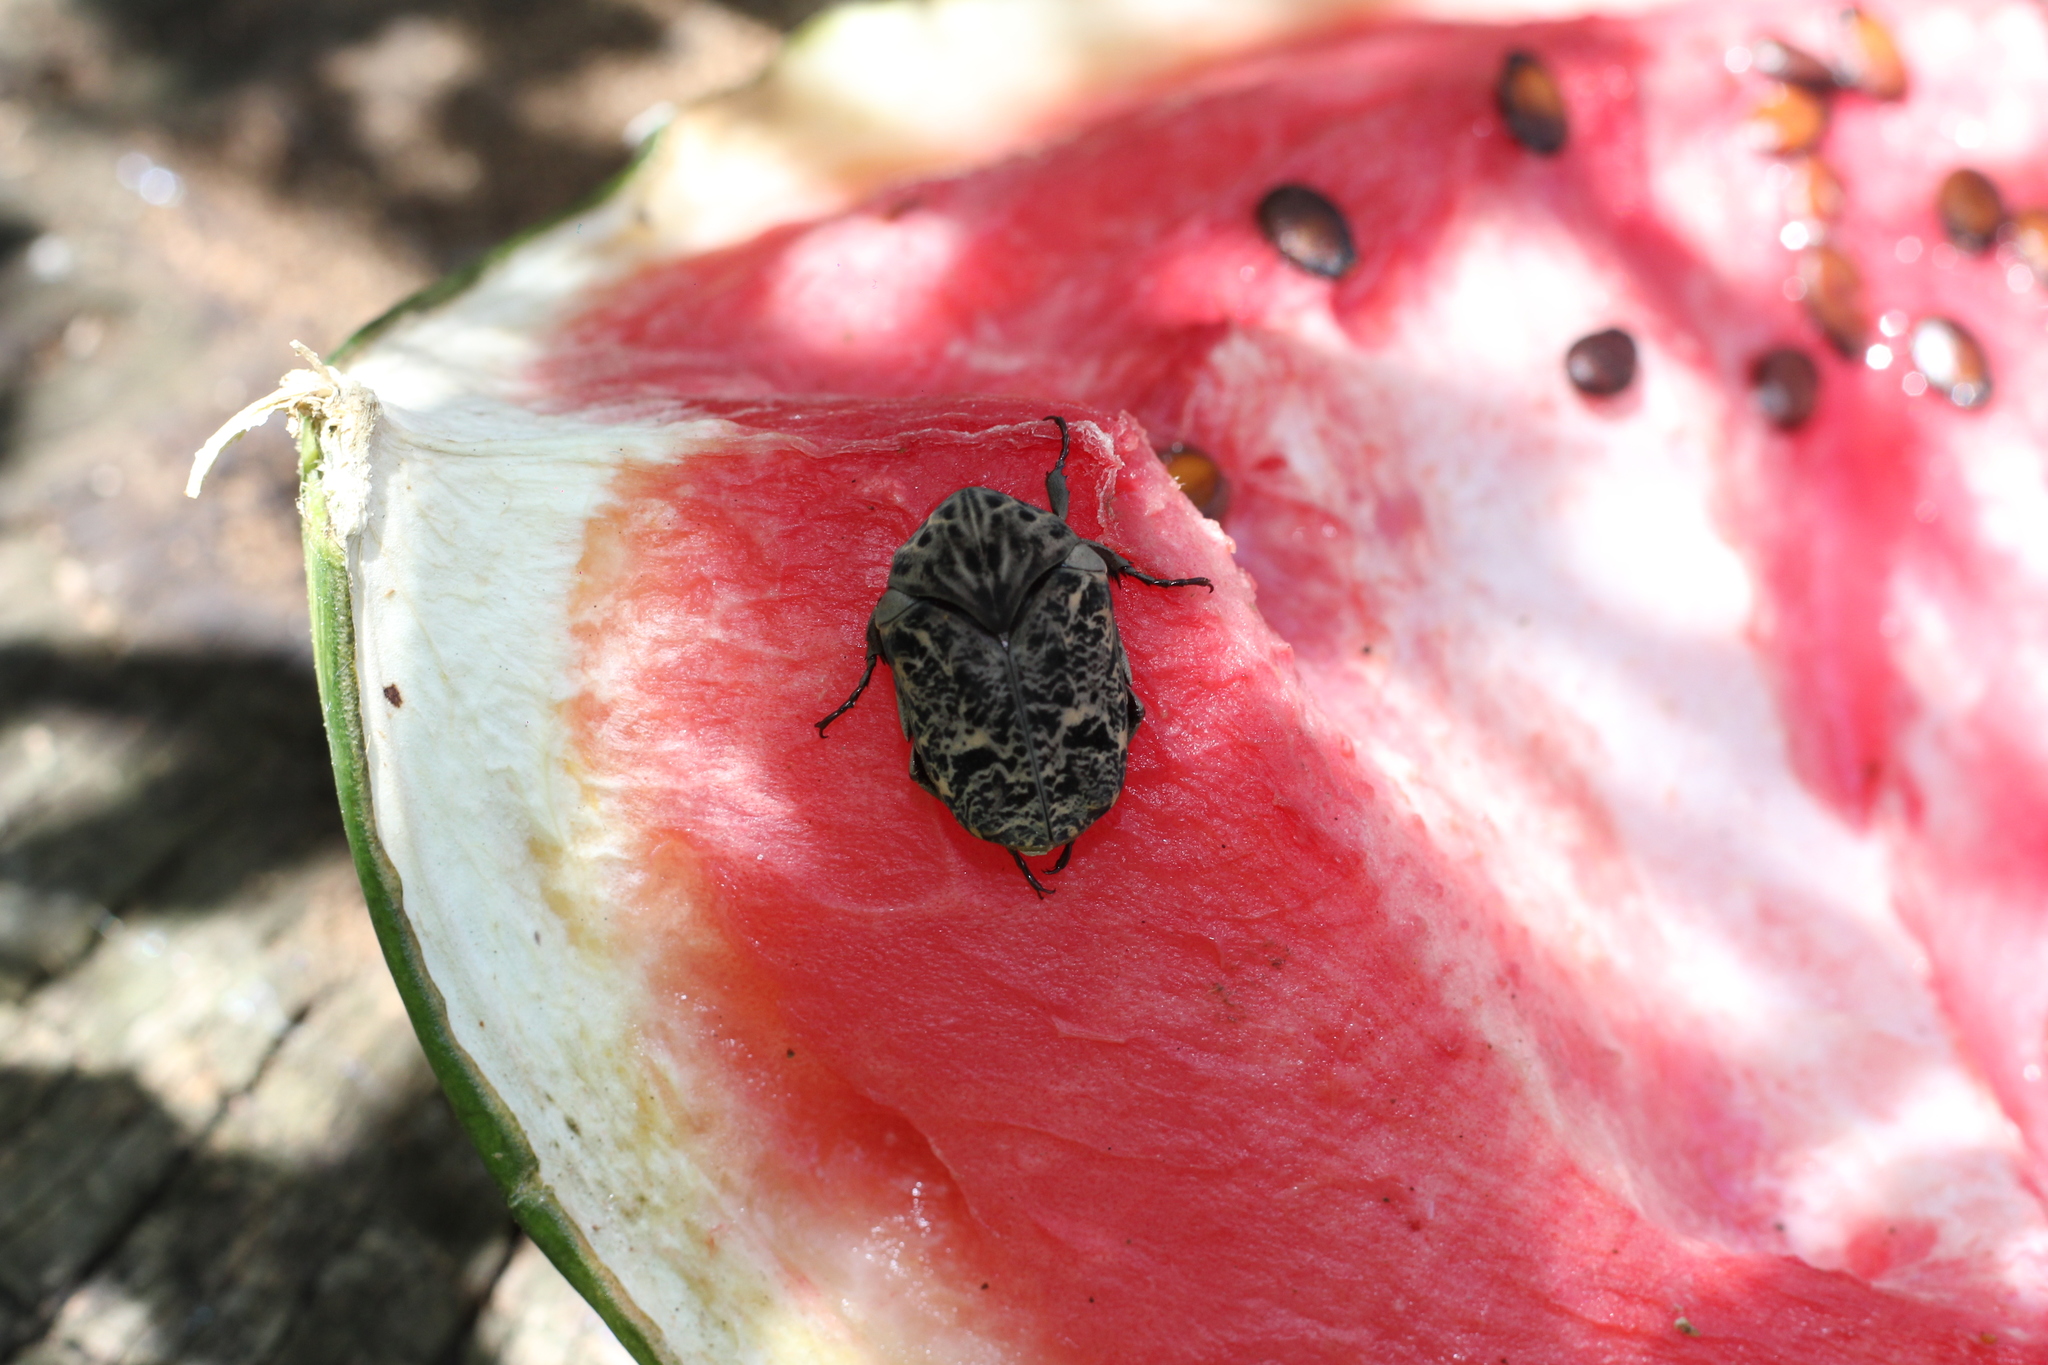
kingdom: Animalia
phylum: Arthropoda
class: Insecta
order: Coleoptera
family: Scarabaeidae
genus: Gymnetis
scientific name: Gymnetis chalcipes
